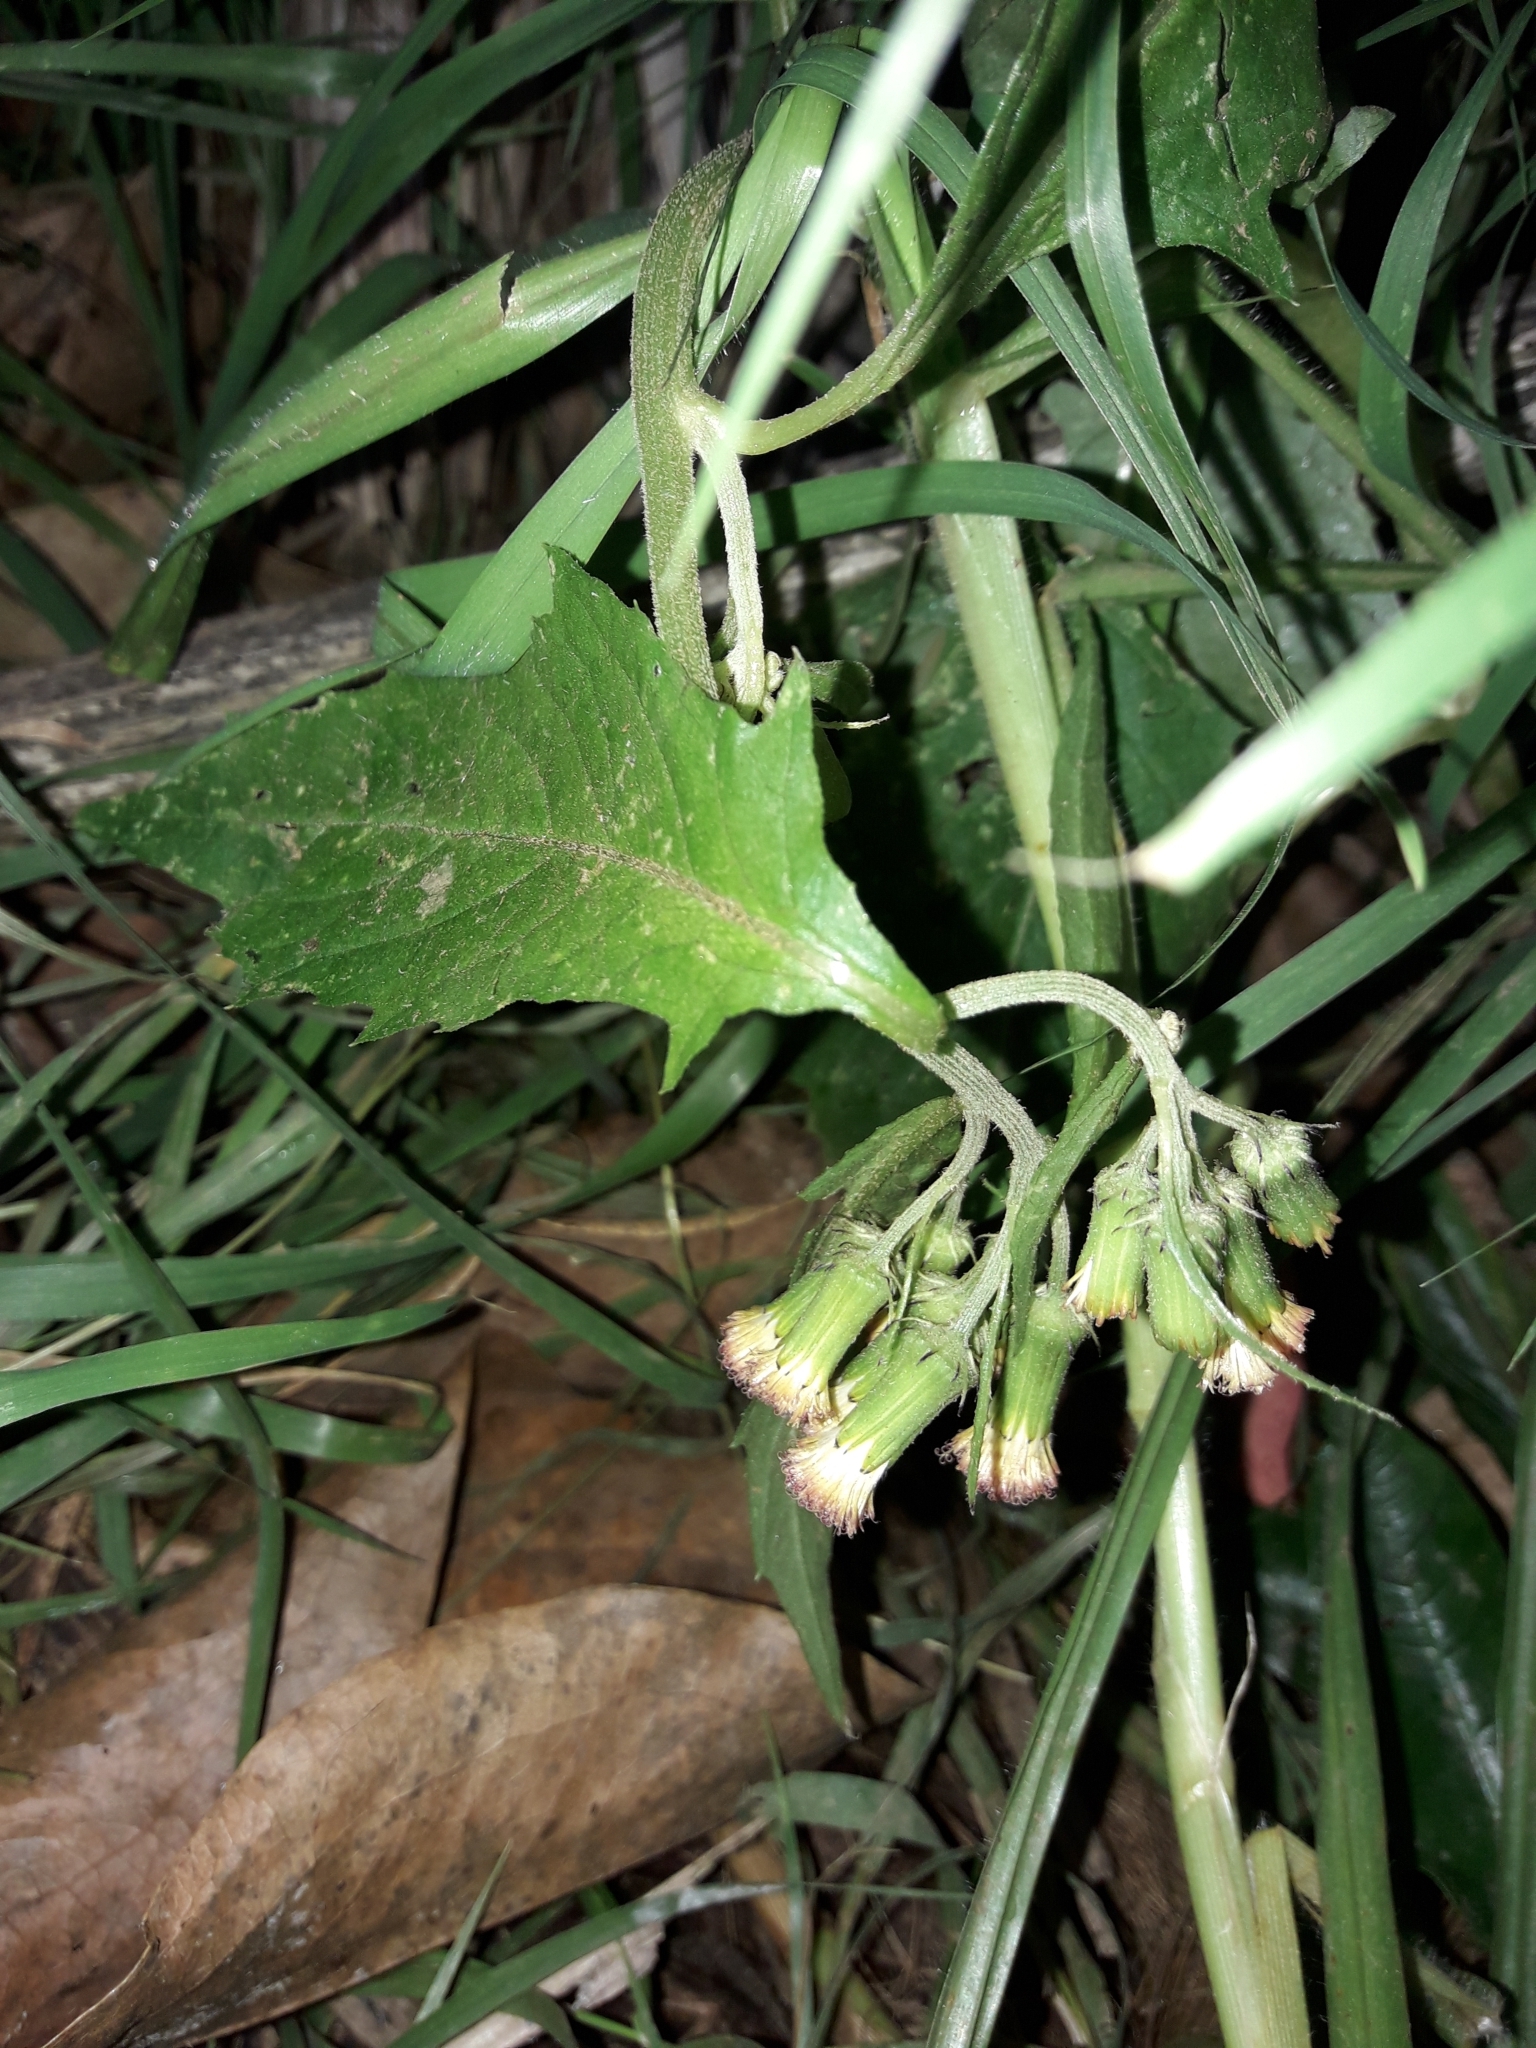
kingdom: Plantae
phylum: Tracheophyta
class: Magnoliopsida
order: Asterales
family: Asteraceae
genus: Crassocephalum
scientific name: Crassocephalum crepidioides
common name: Redflower ragleaf
